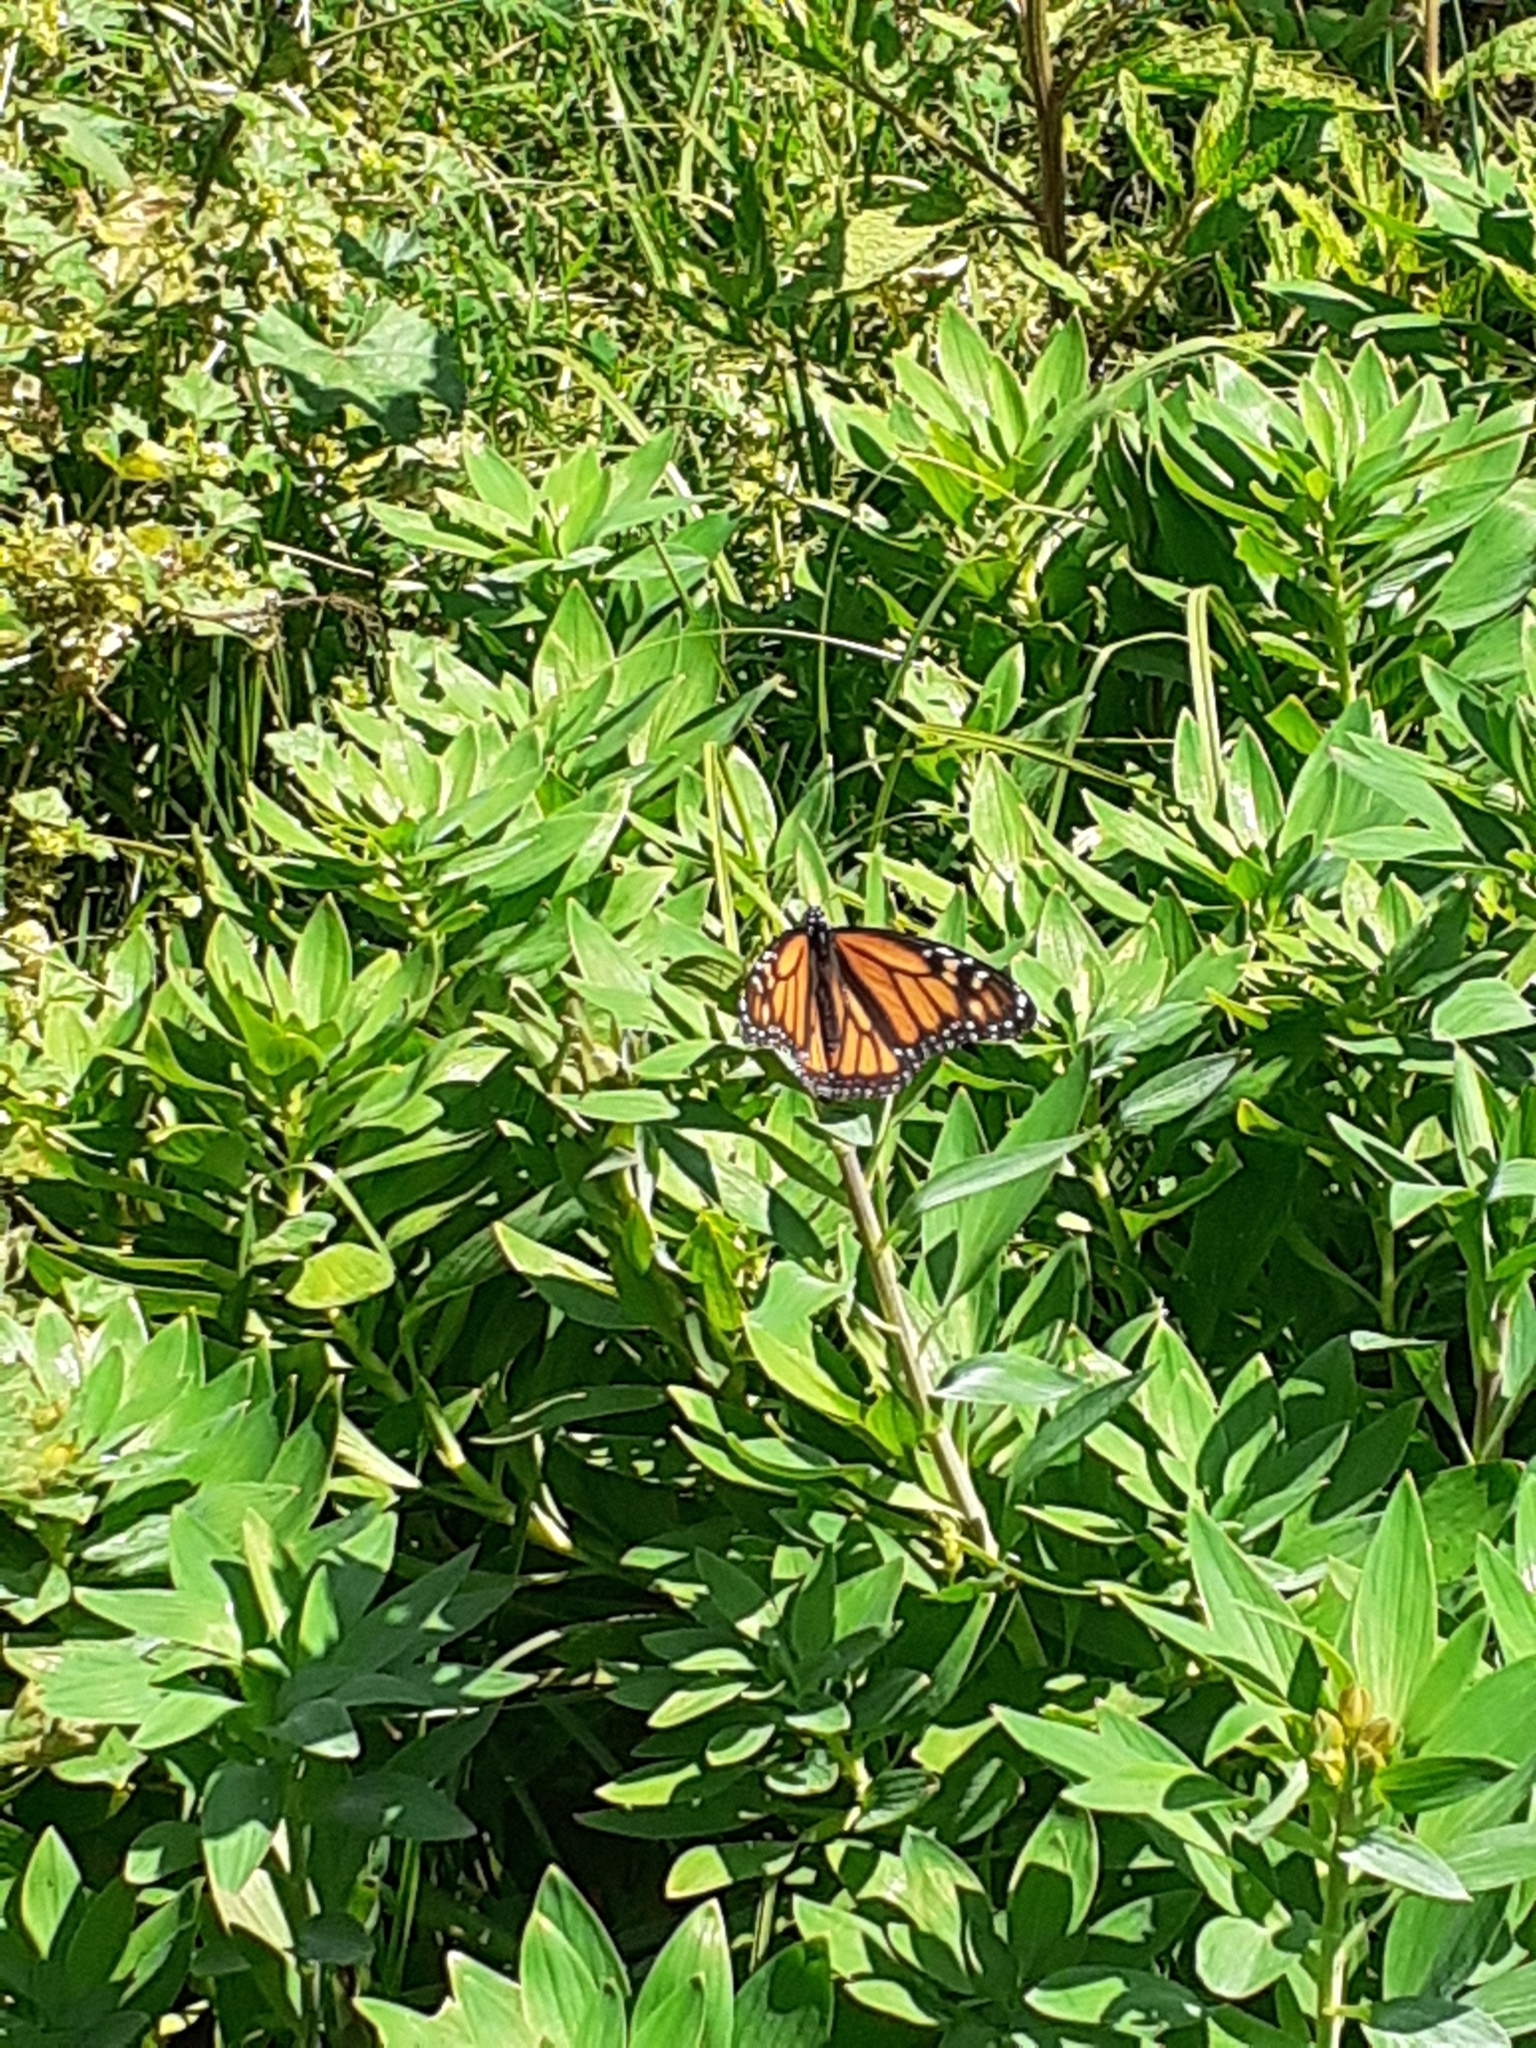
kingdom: Animalia
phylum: Arthropoda
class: Insecta
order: Lepidoptera
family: Nymphalidae
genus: Danaus
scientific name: Danaus plexippus
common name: Monarch
